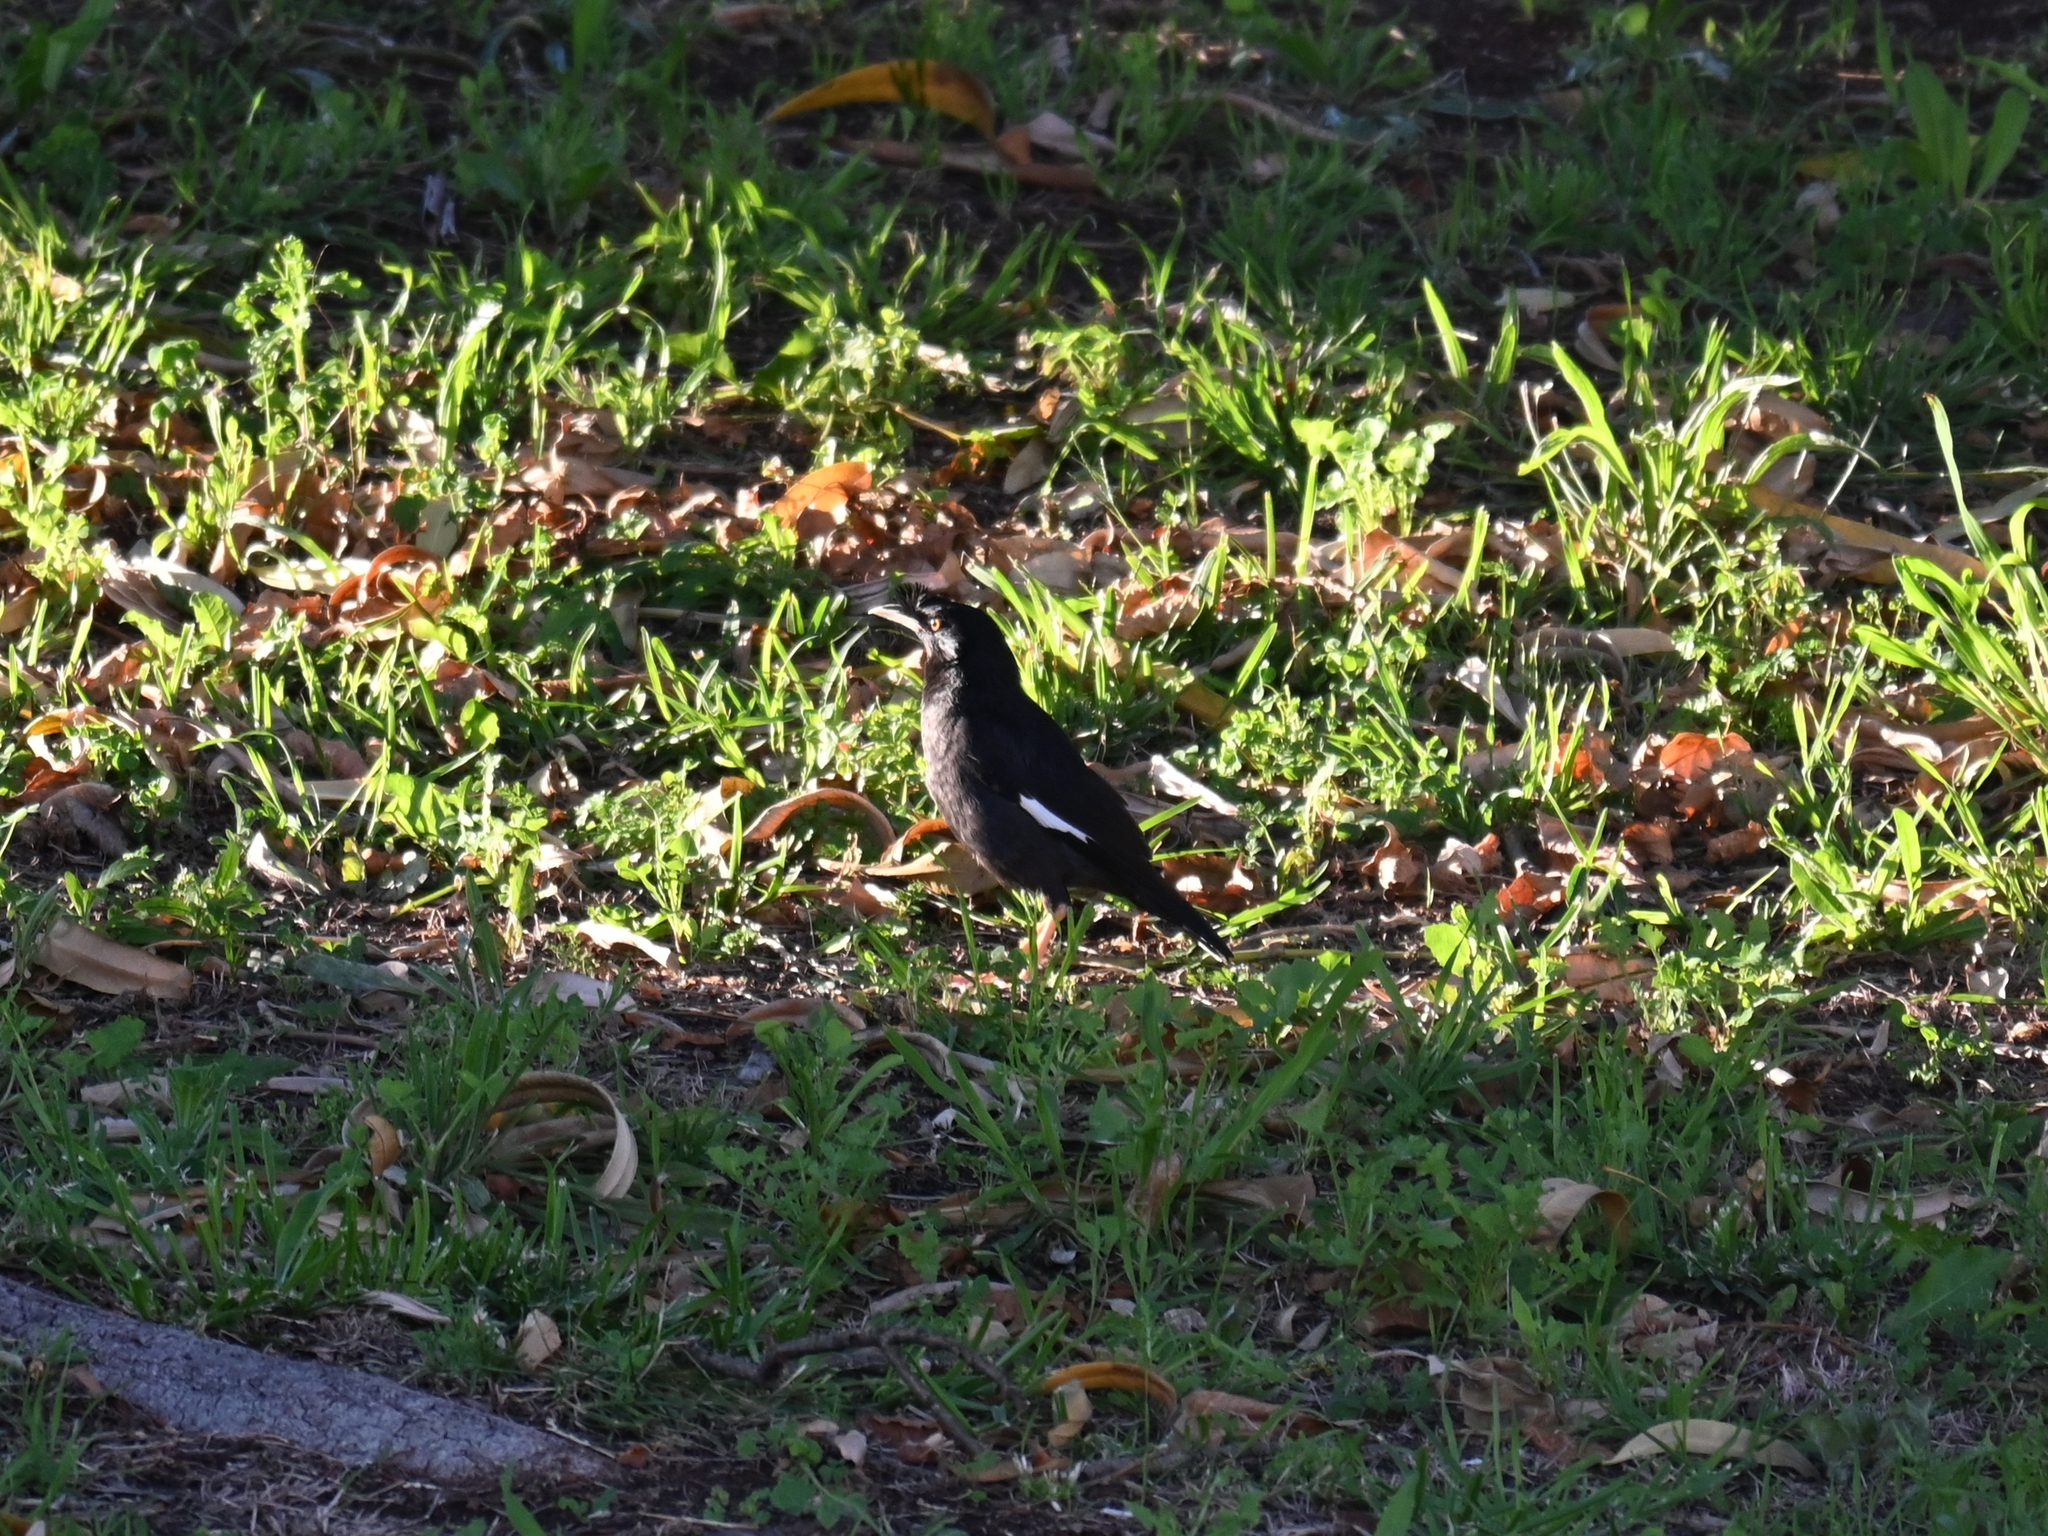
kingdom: Animalia
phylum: Chordata
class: Aves
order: Passeriformes
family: Sturnidae
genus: Acridotheres
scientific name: Acridotheres cristatellus
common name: Crested myna
